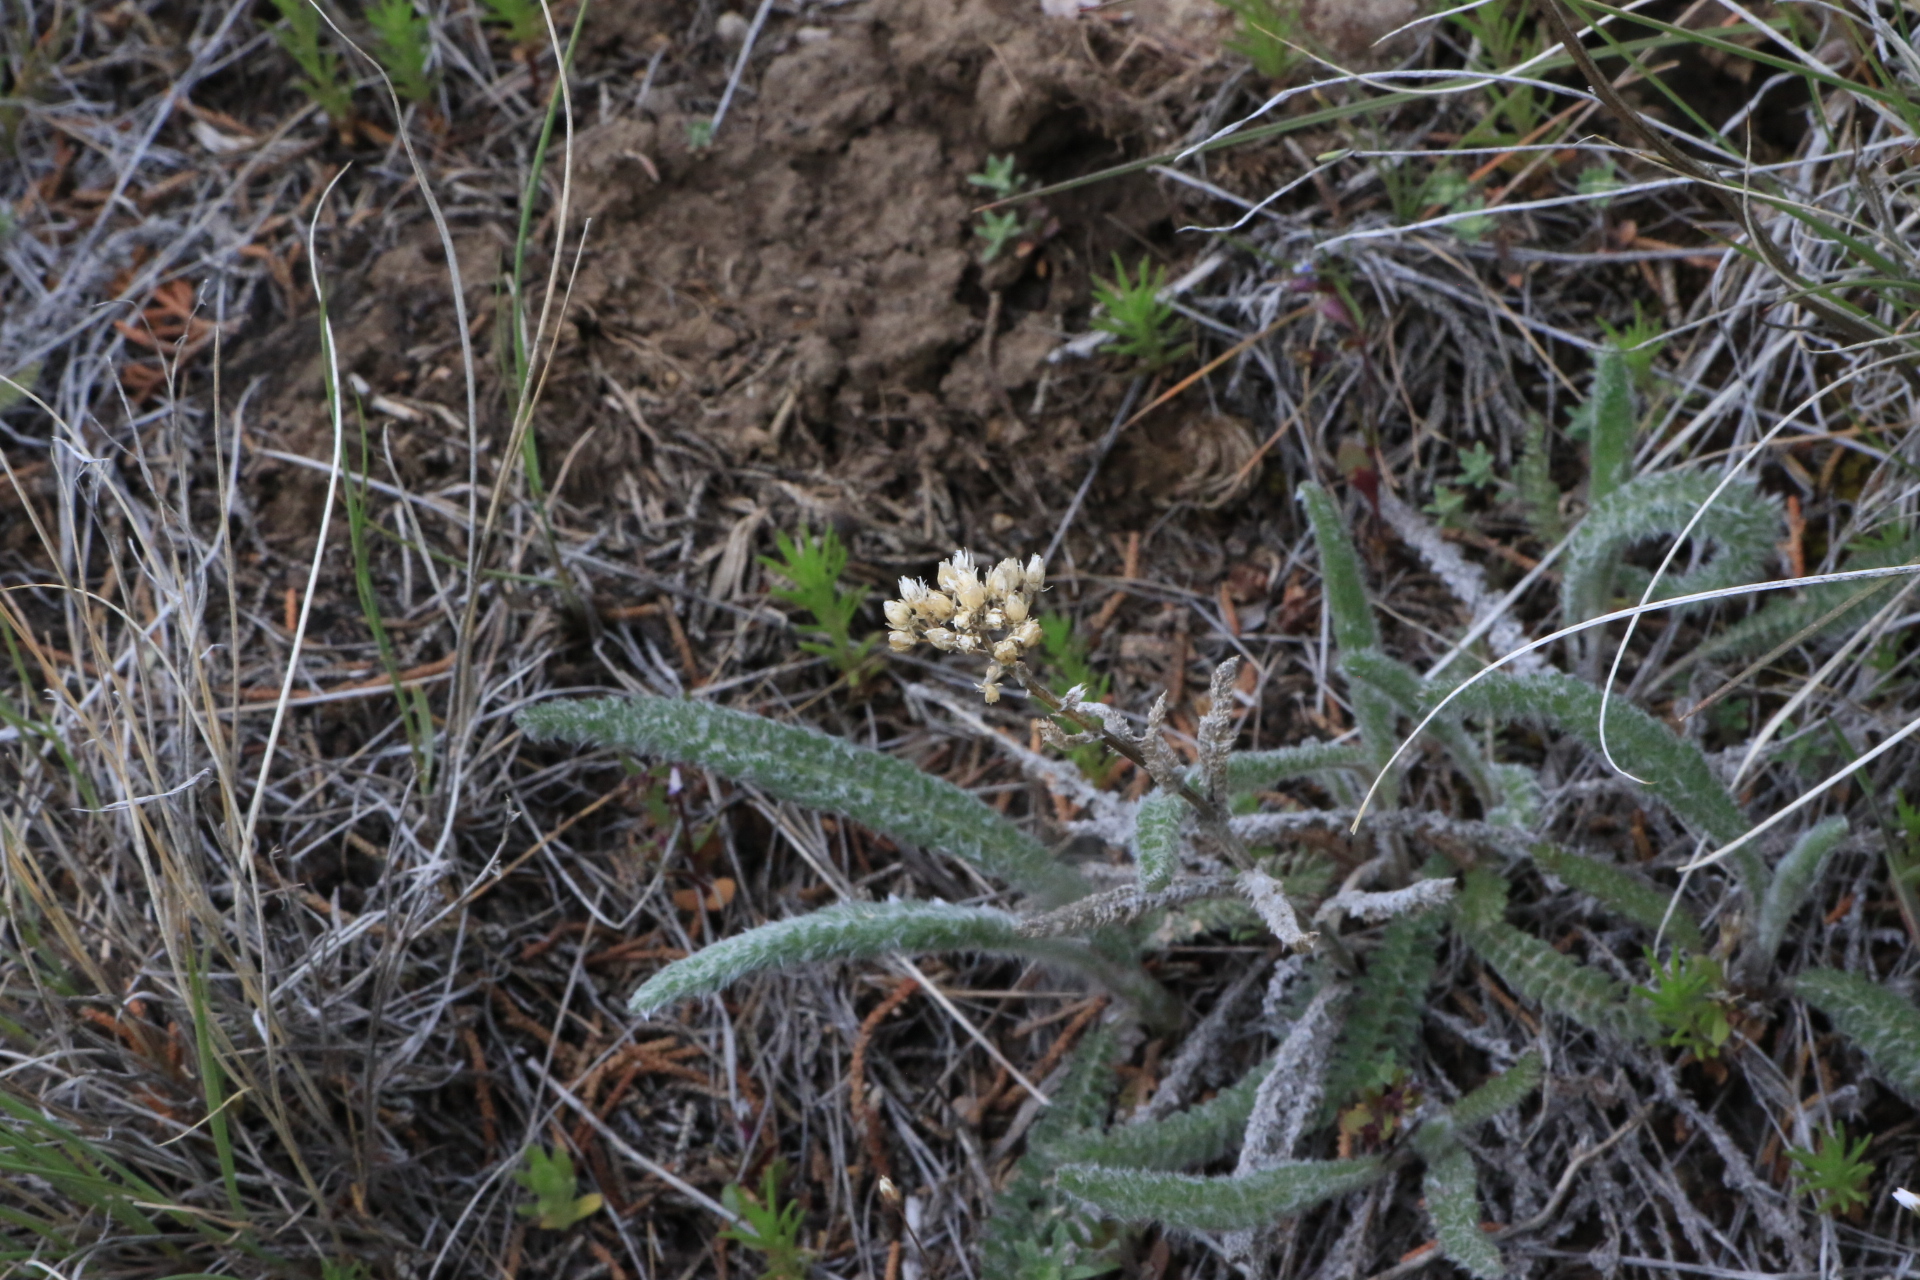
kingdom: Plantae
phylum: Tracheophyta
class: Magnoliopsida
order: Asterales
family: Asteraceae
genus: Achillea
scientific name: Achillea millefolium
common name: Yarrow
